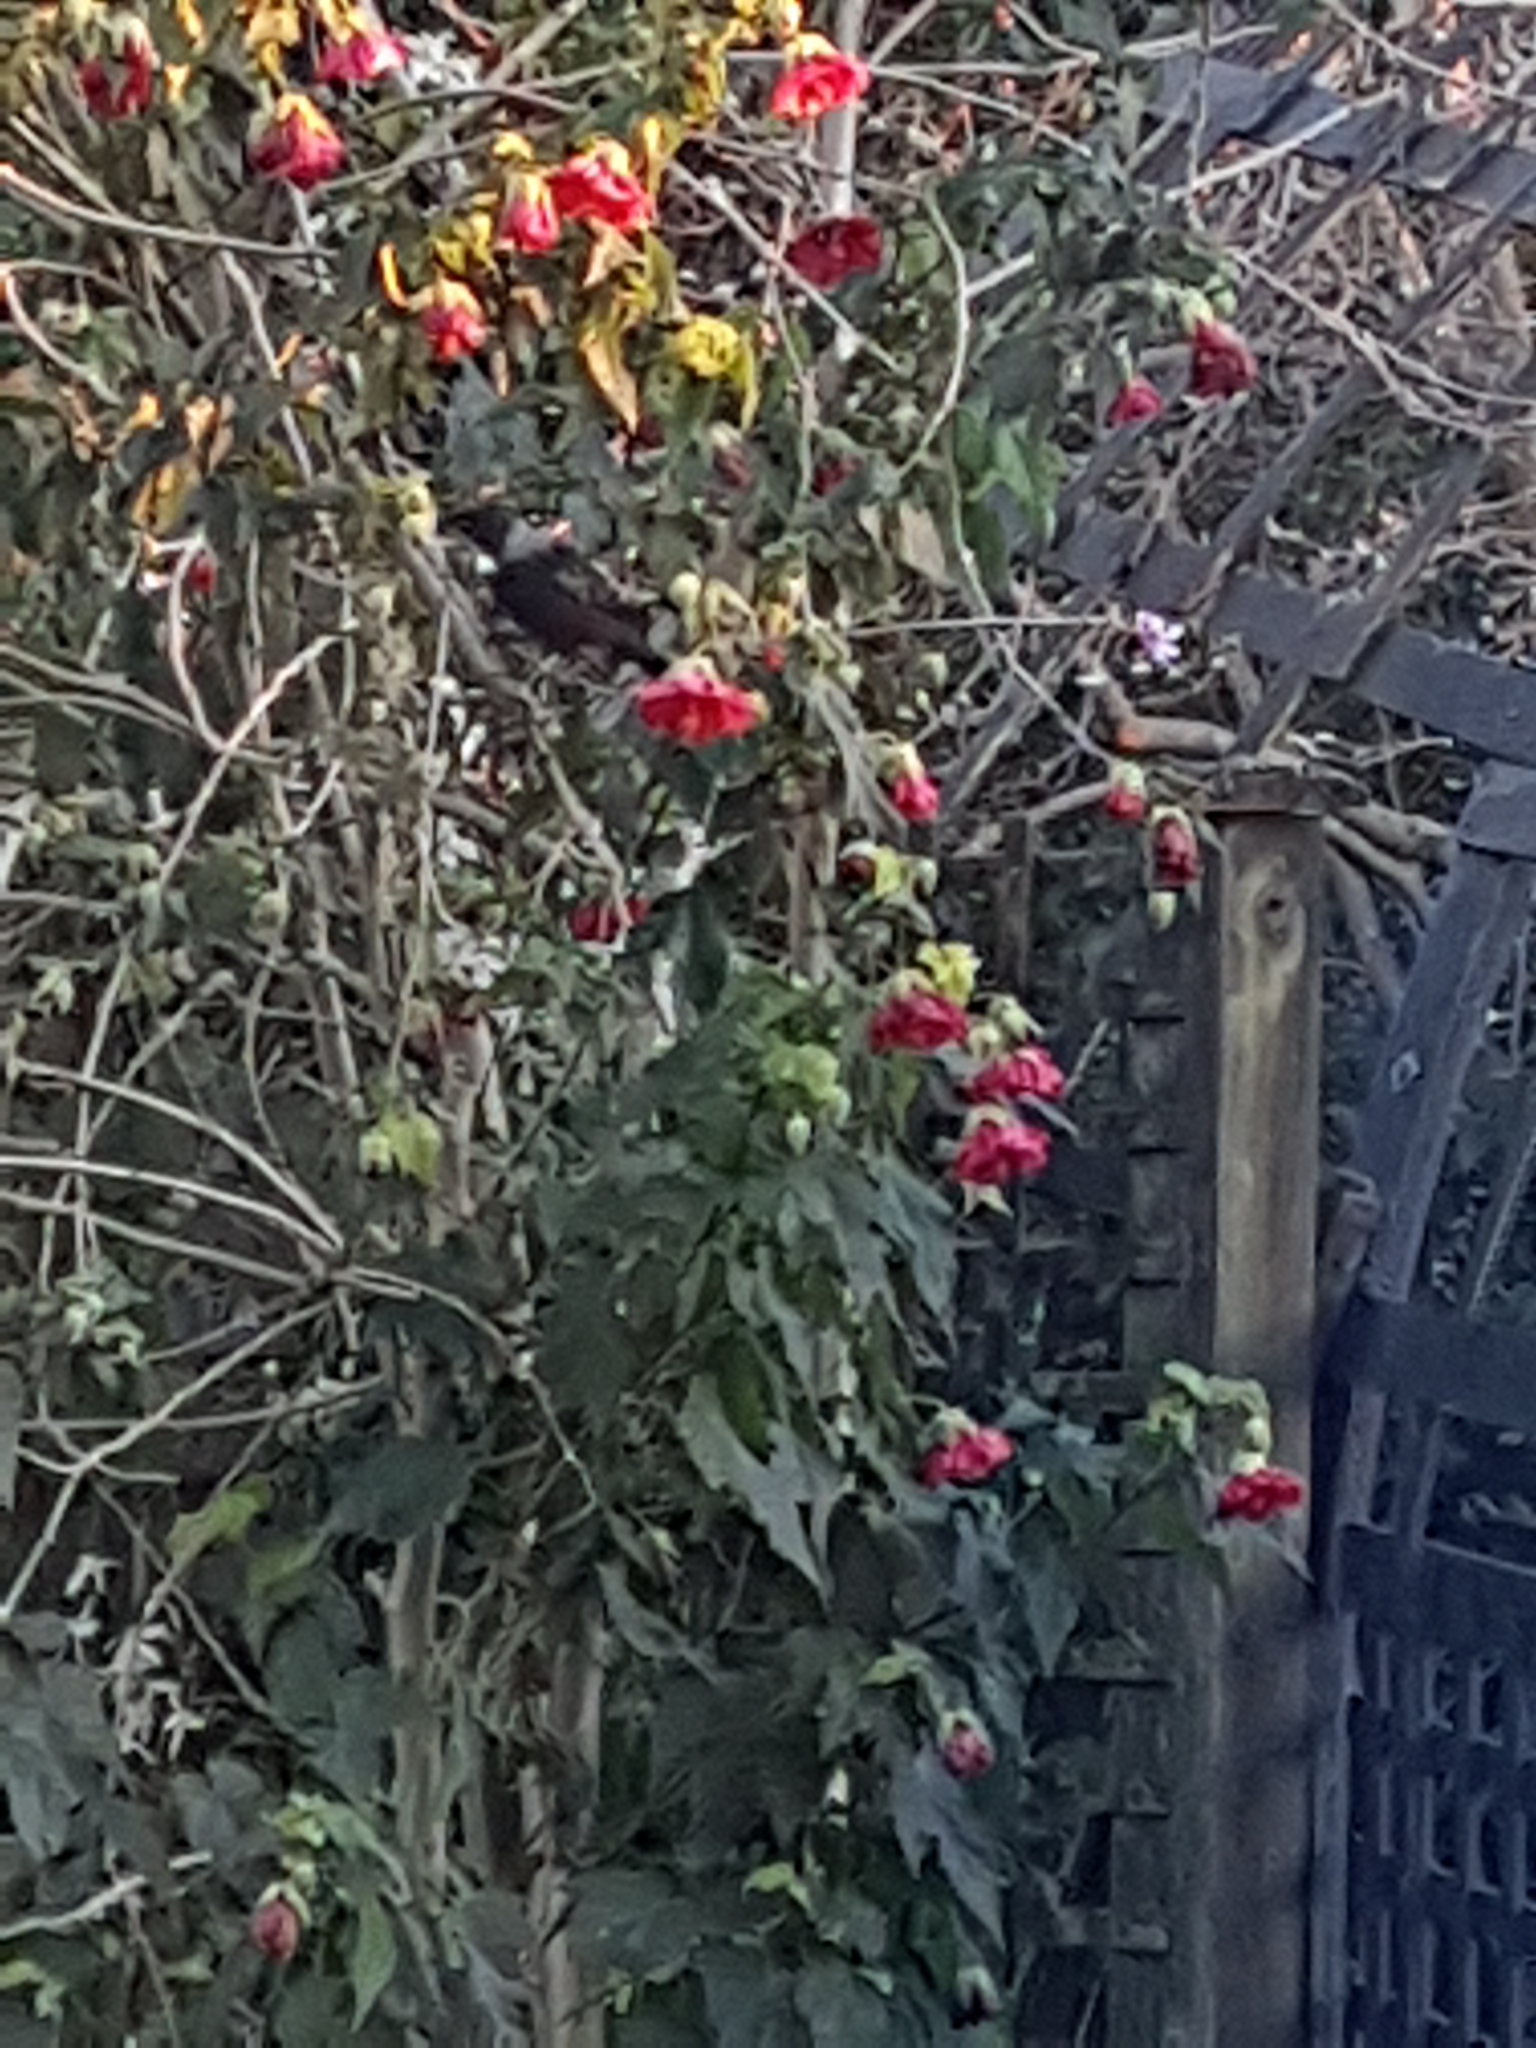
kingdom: Animalia
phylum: Chordata
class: Aves
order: Passeriformes
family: Meliphagidae
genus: Prosthemadera
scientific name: Prosthemadera novaeseelandiae
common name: Tui
